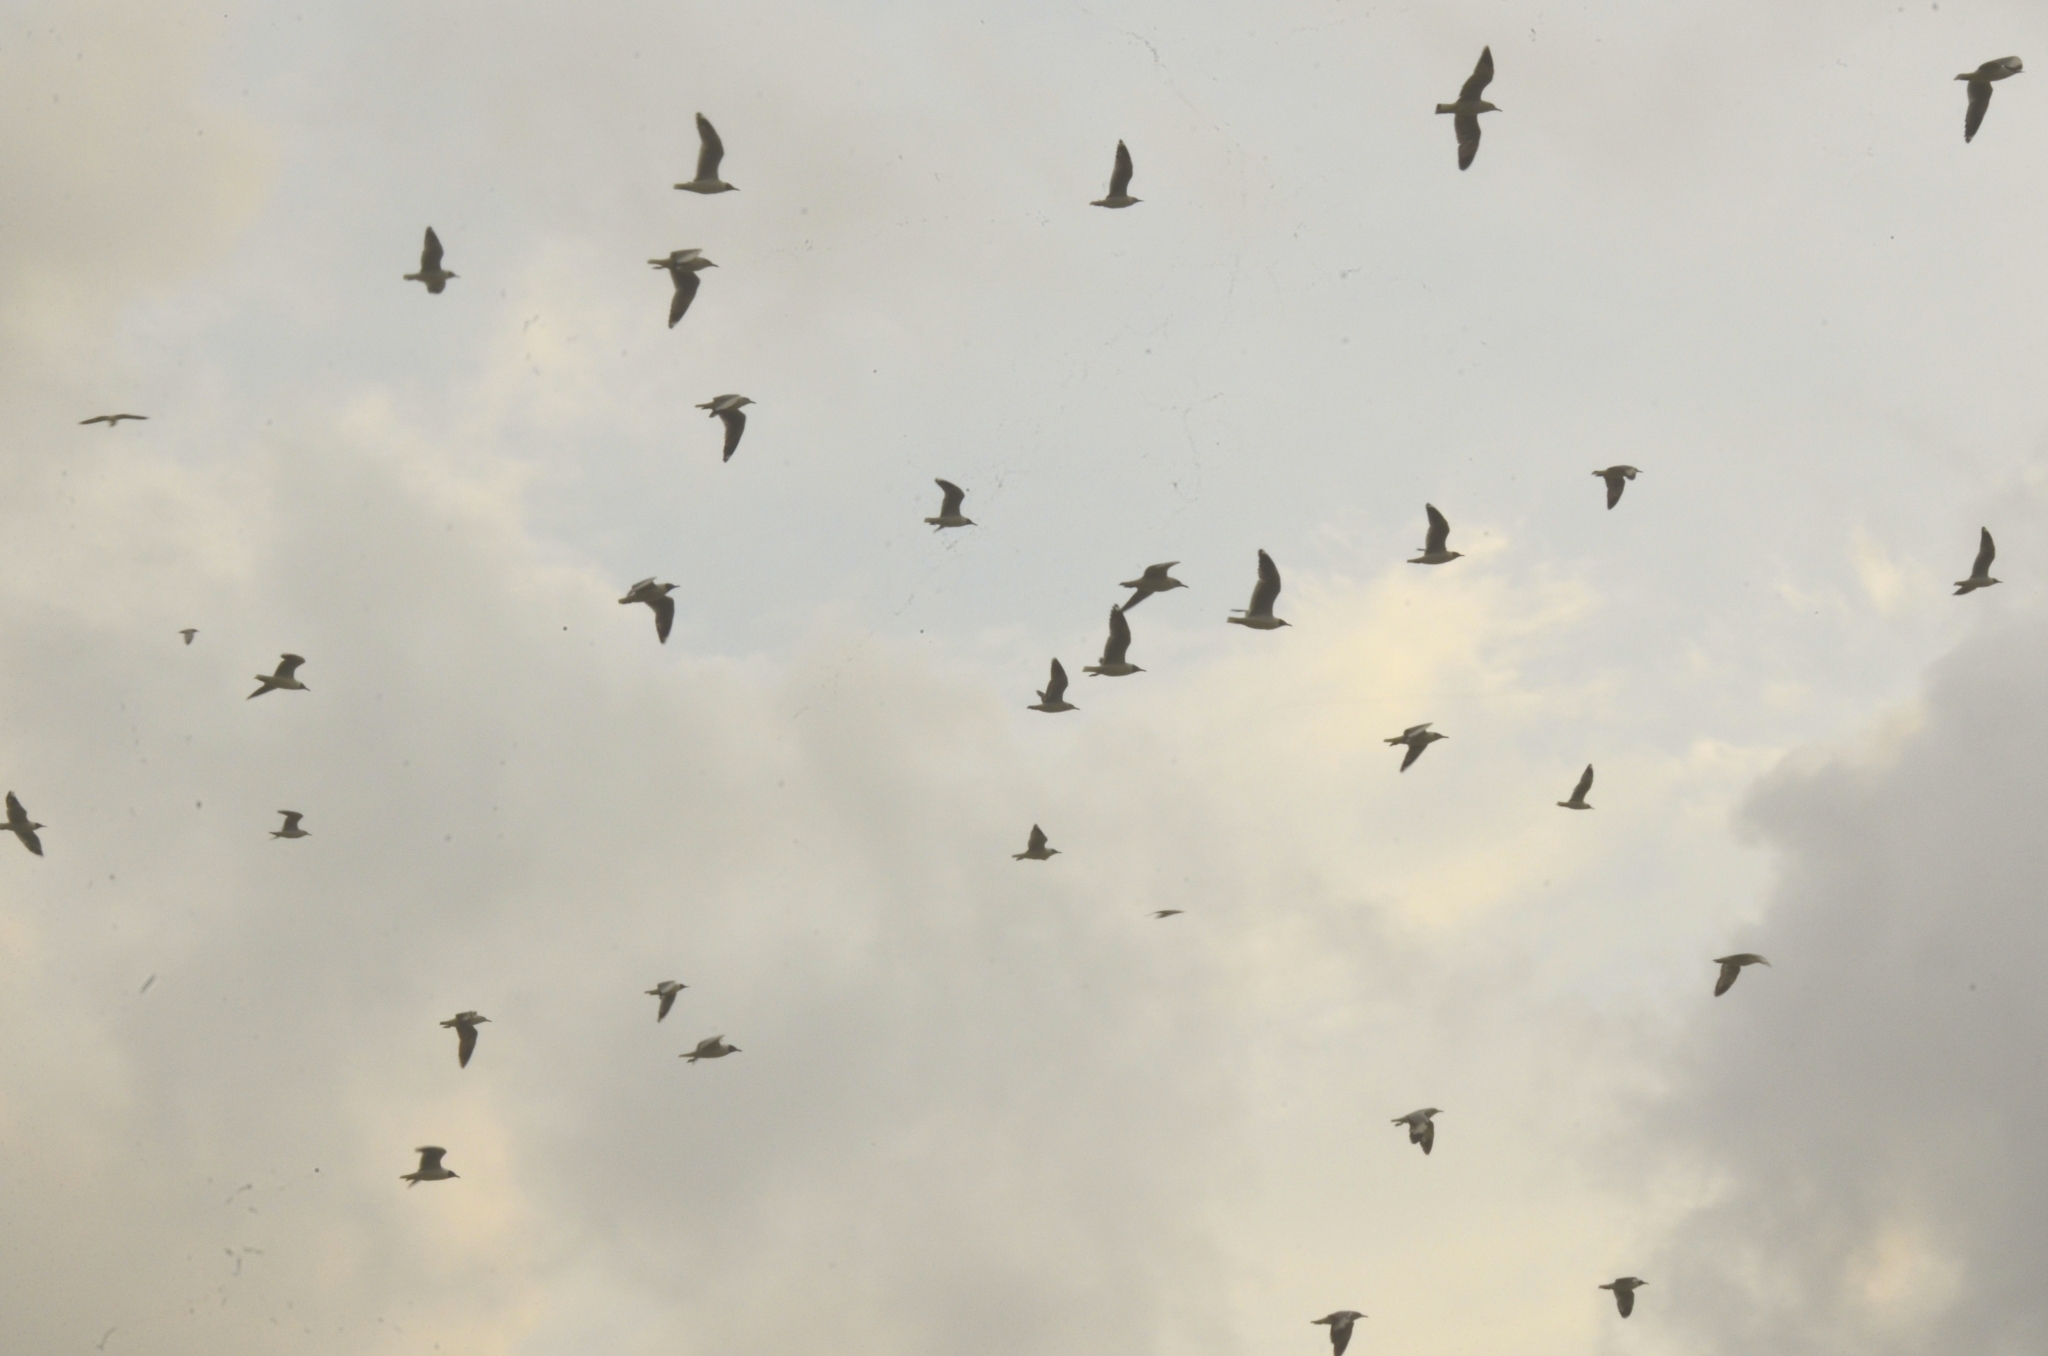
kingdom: Animalia
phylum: Chordata
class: Aves
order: Charadriiformes
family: Laridae
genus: Chroicocephalus
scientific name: Chroicocephalus brunnicephalus
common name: Brown-headed gull
